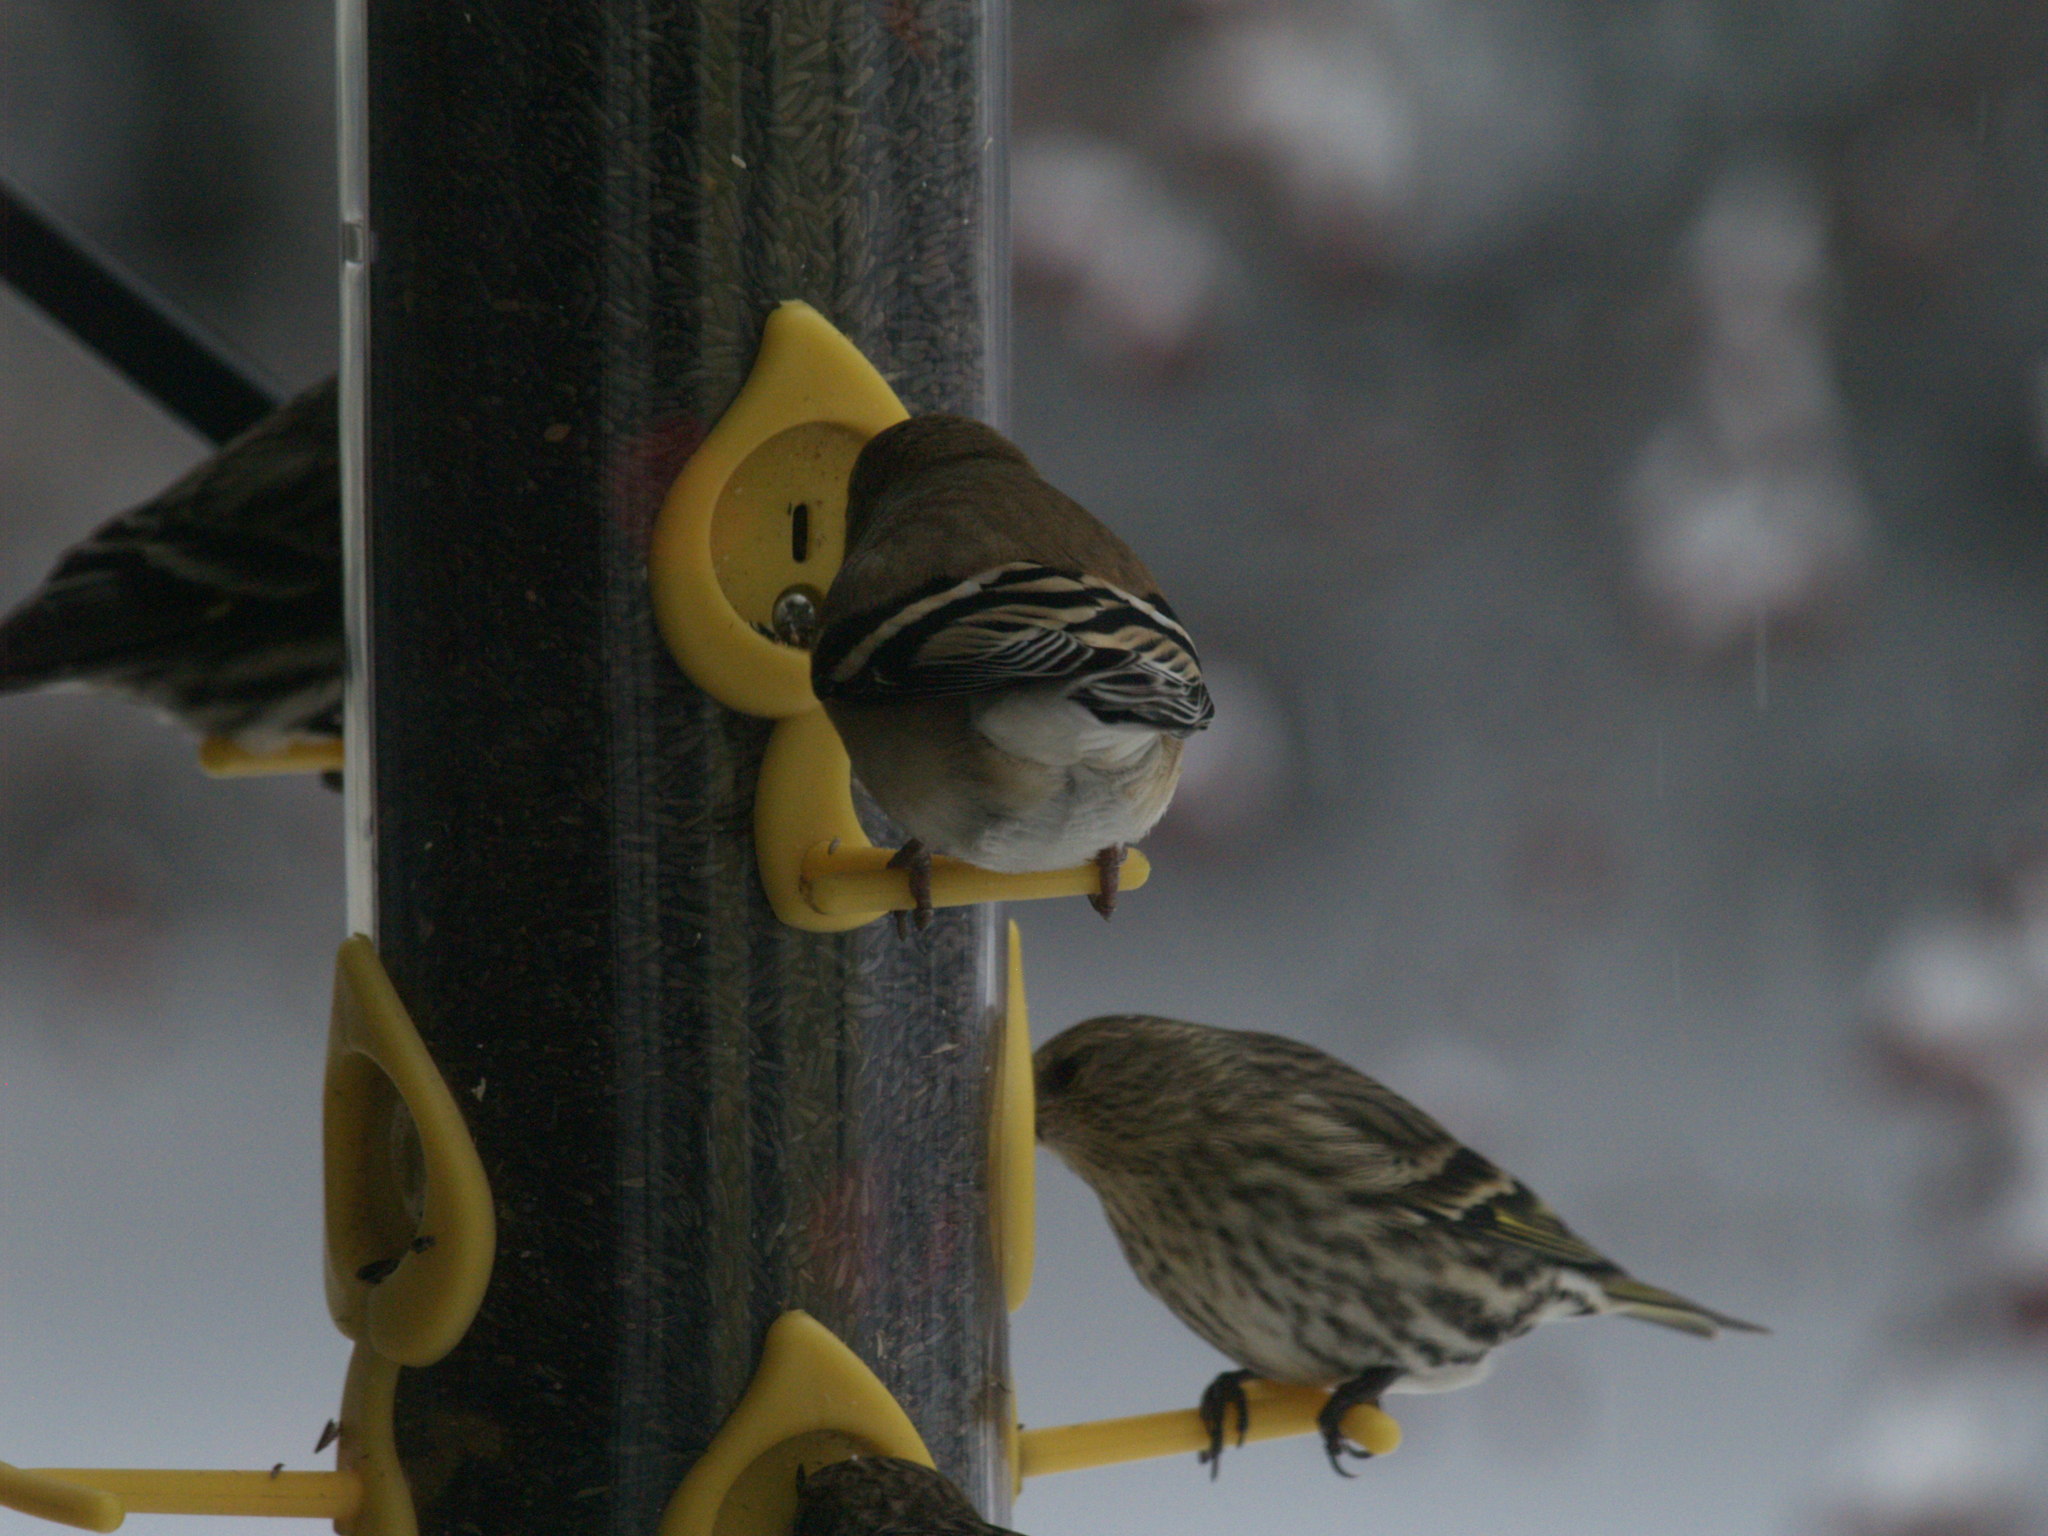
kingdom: Animalia
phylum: Chordata
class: Aves
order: Passeriformes
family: Fringillidae
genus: Spinus
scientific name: Spinus pinus
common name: Pine siskin
